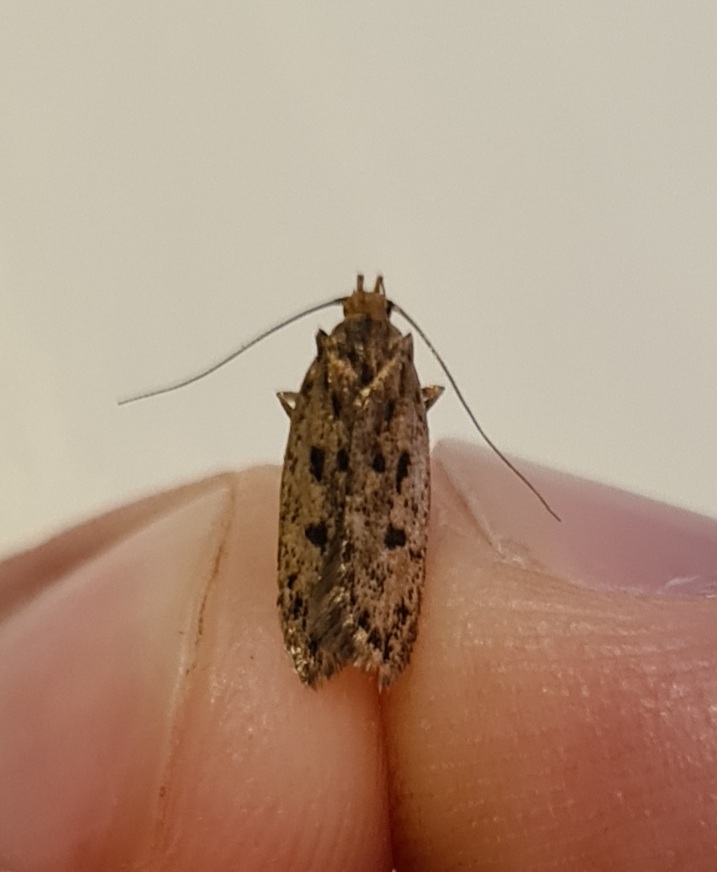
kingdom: Animalia
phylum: Arthropoda
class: Insecta
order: Lepidoptera
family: Oecophoridae
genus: Hofmannophila
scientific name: Hofmannophila pseudospretella
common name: Brown house moth
